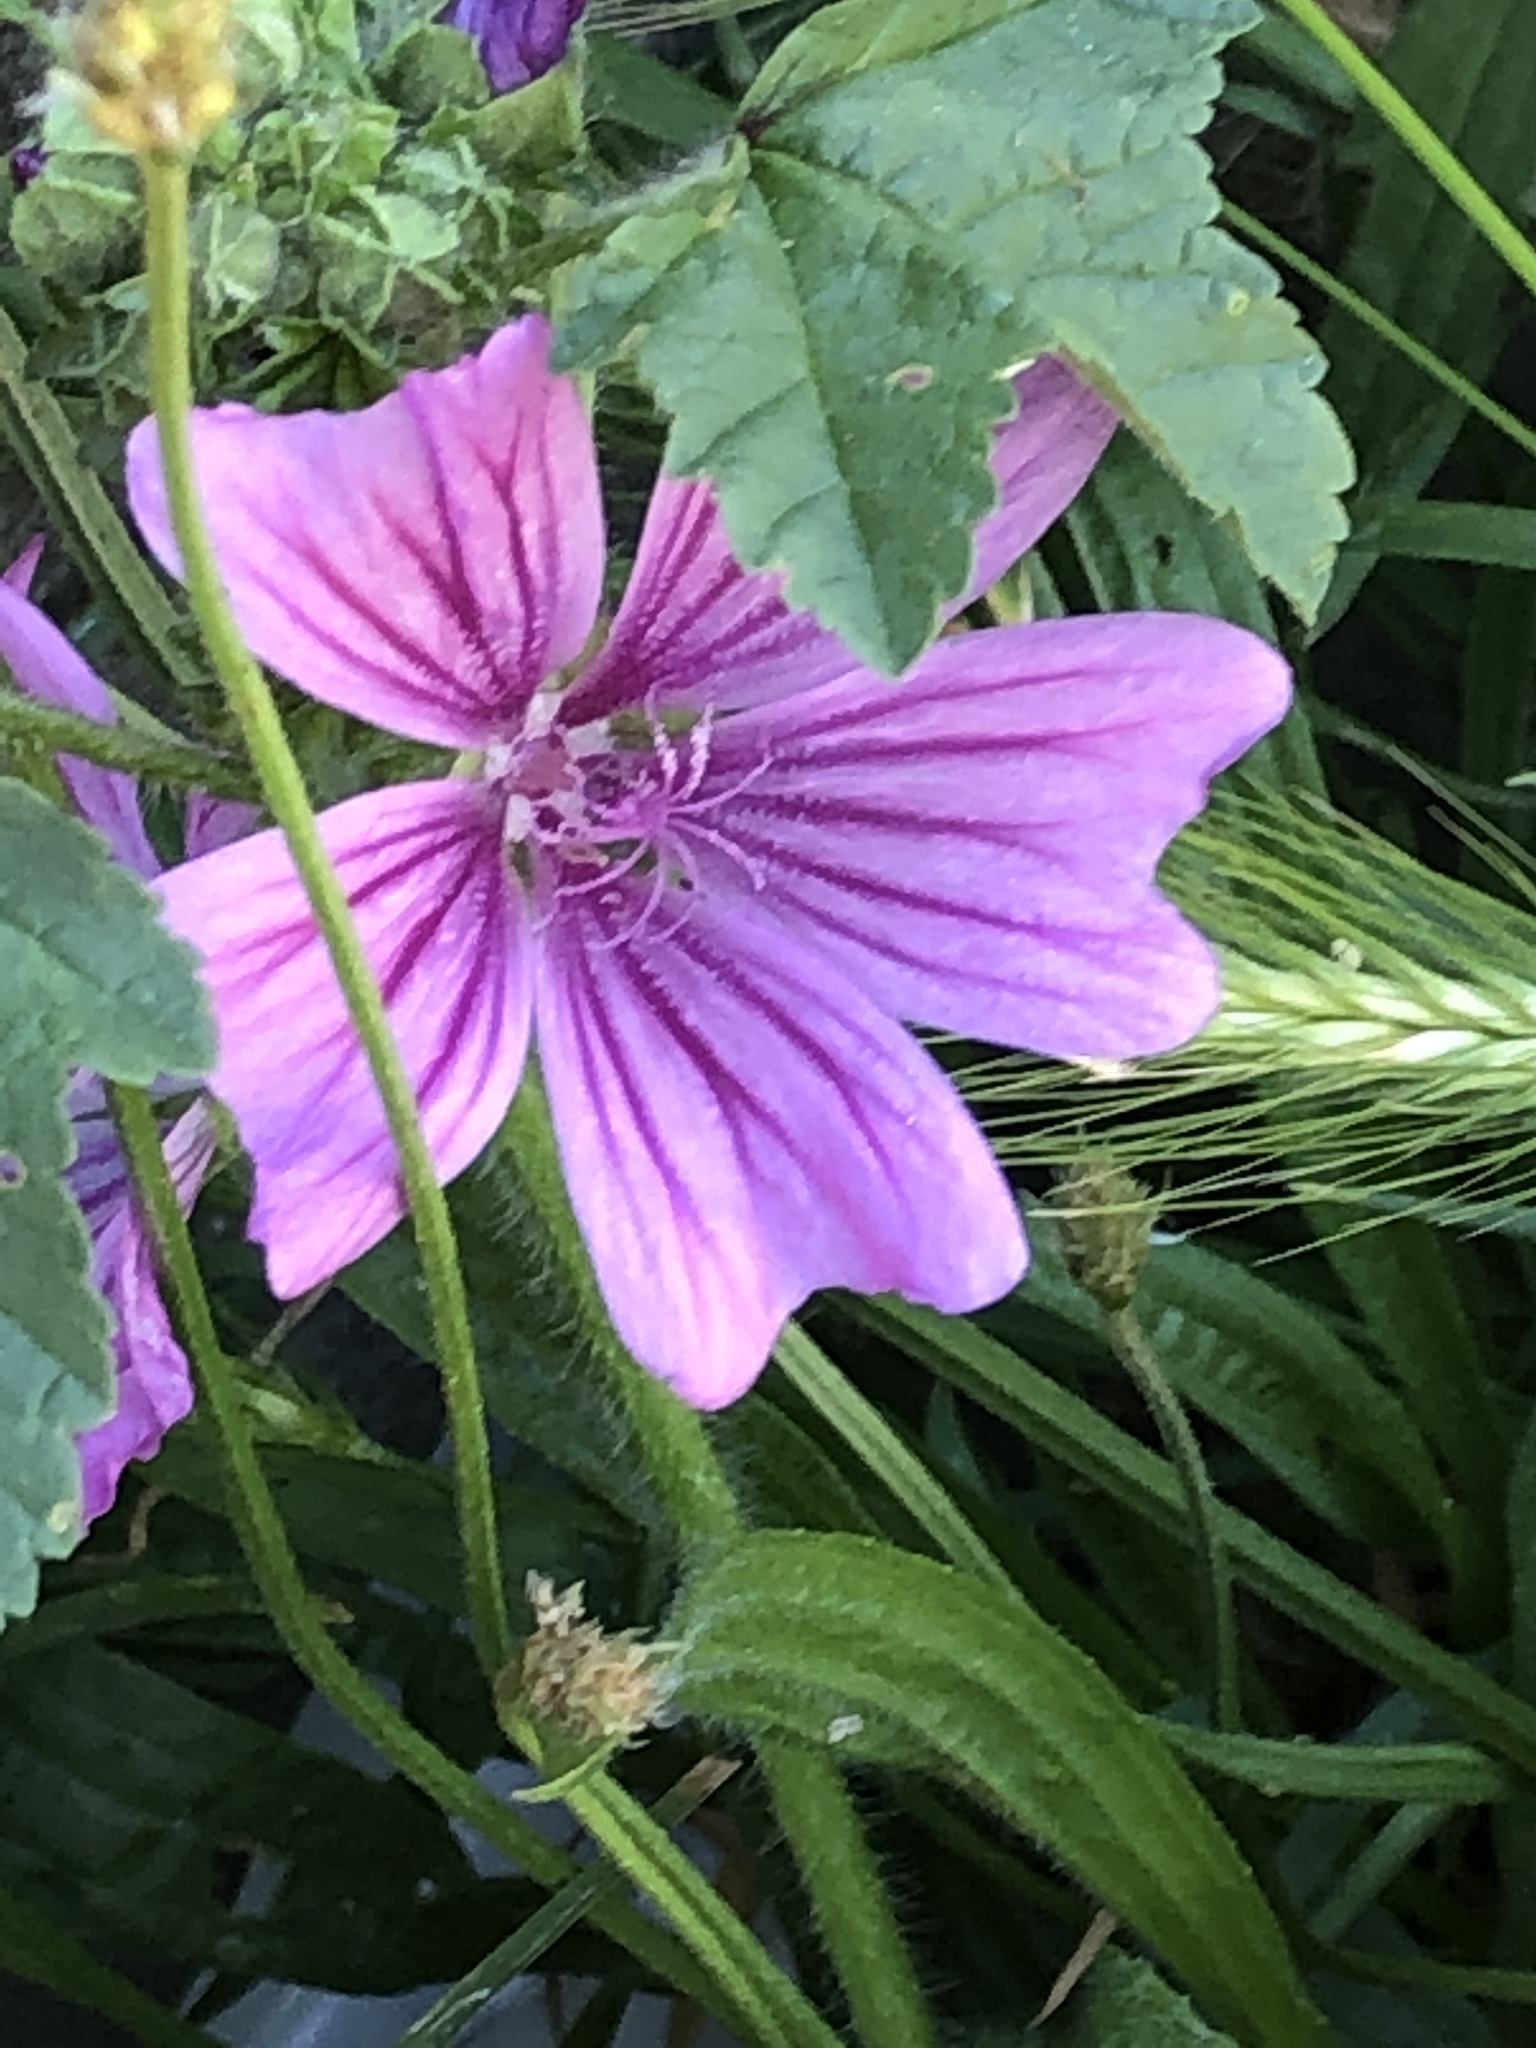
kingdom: Plantae
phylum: Tracheophyta
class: Magnoliopsida
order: Malvales
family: Malvaceae
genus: Malva
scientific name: Malva sylvestris
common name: Common mallow
